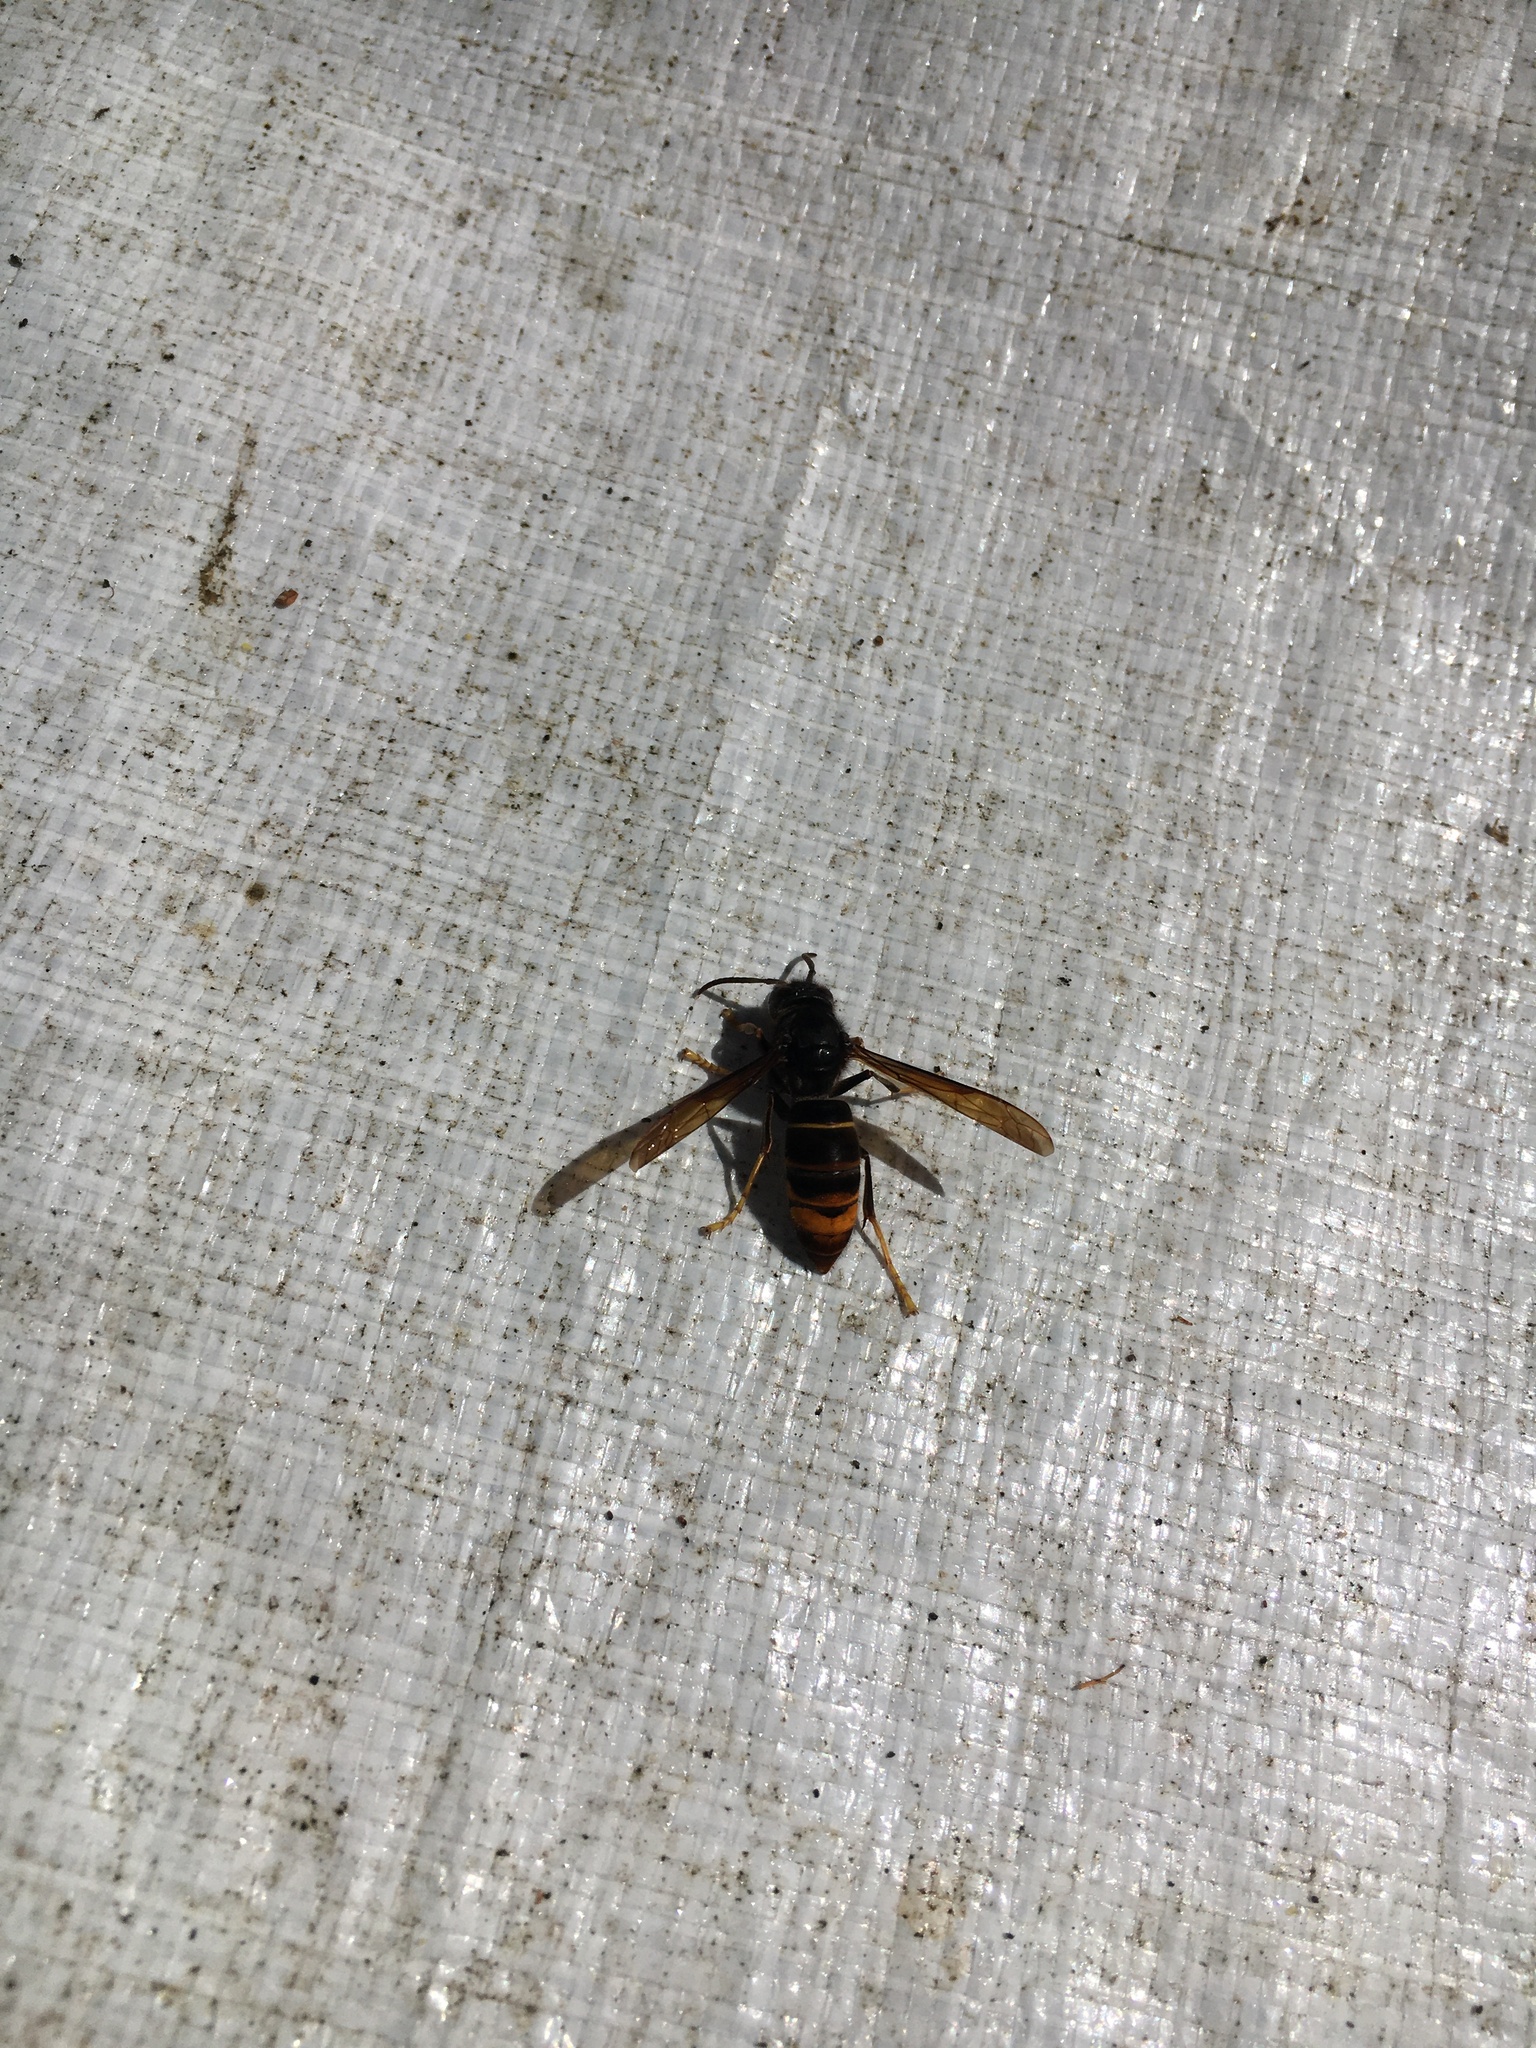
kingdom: Animalia
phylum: Arthropoda
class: Insecta
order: Hymenoptera
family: Vespidae
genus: Vespa
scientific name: Vespa velutina
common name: Asian hornet
